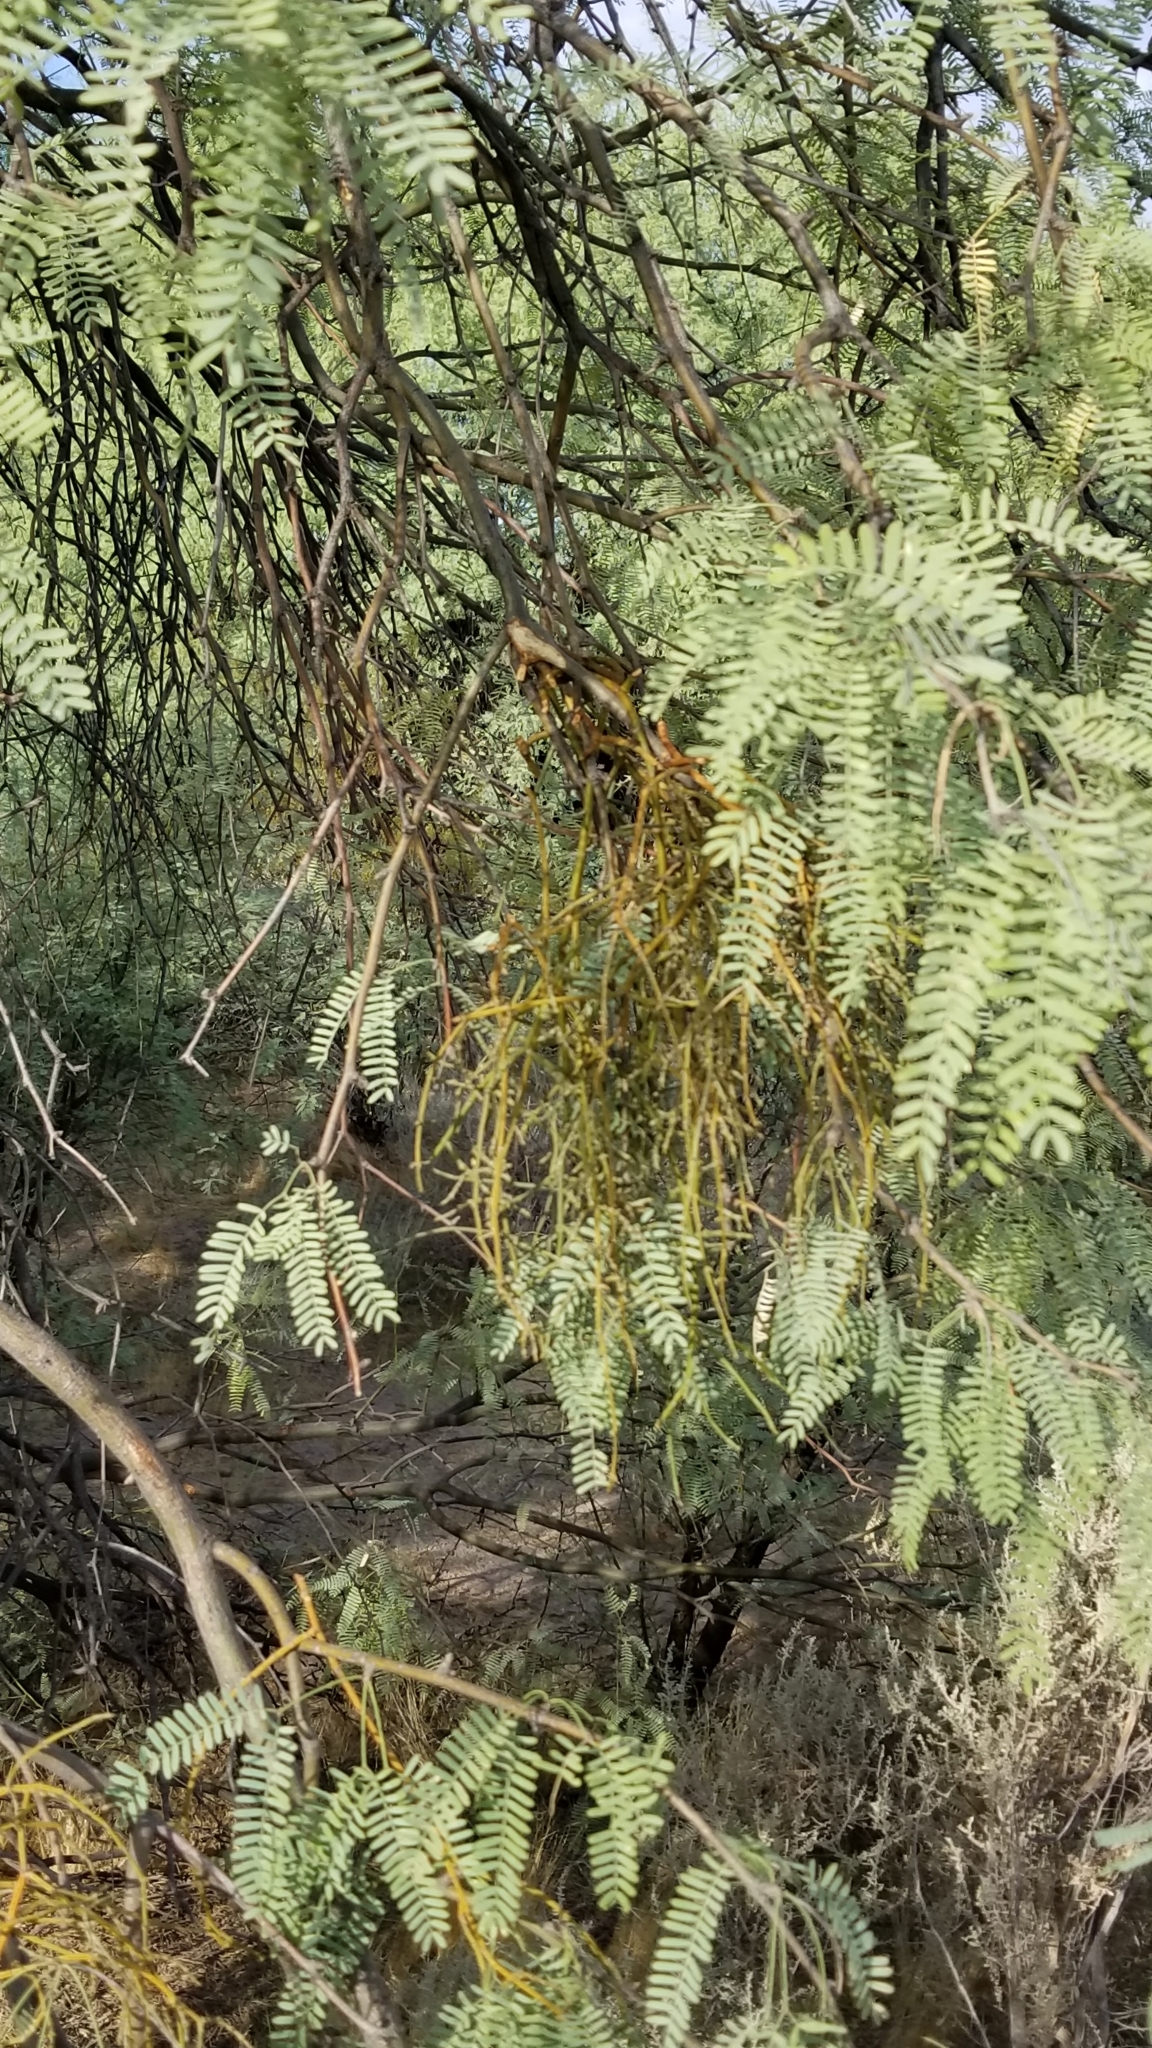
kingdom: Plantae
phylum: Tracheophyta
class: Magnoliopsida
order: Santalales
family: Viscaceae
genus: Phoradendron
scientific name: Phoradendron californicum
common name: Acacia mistletoe
